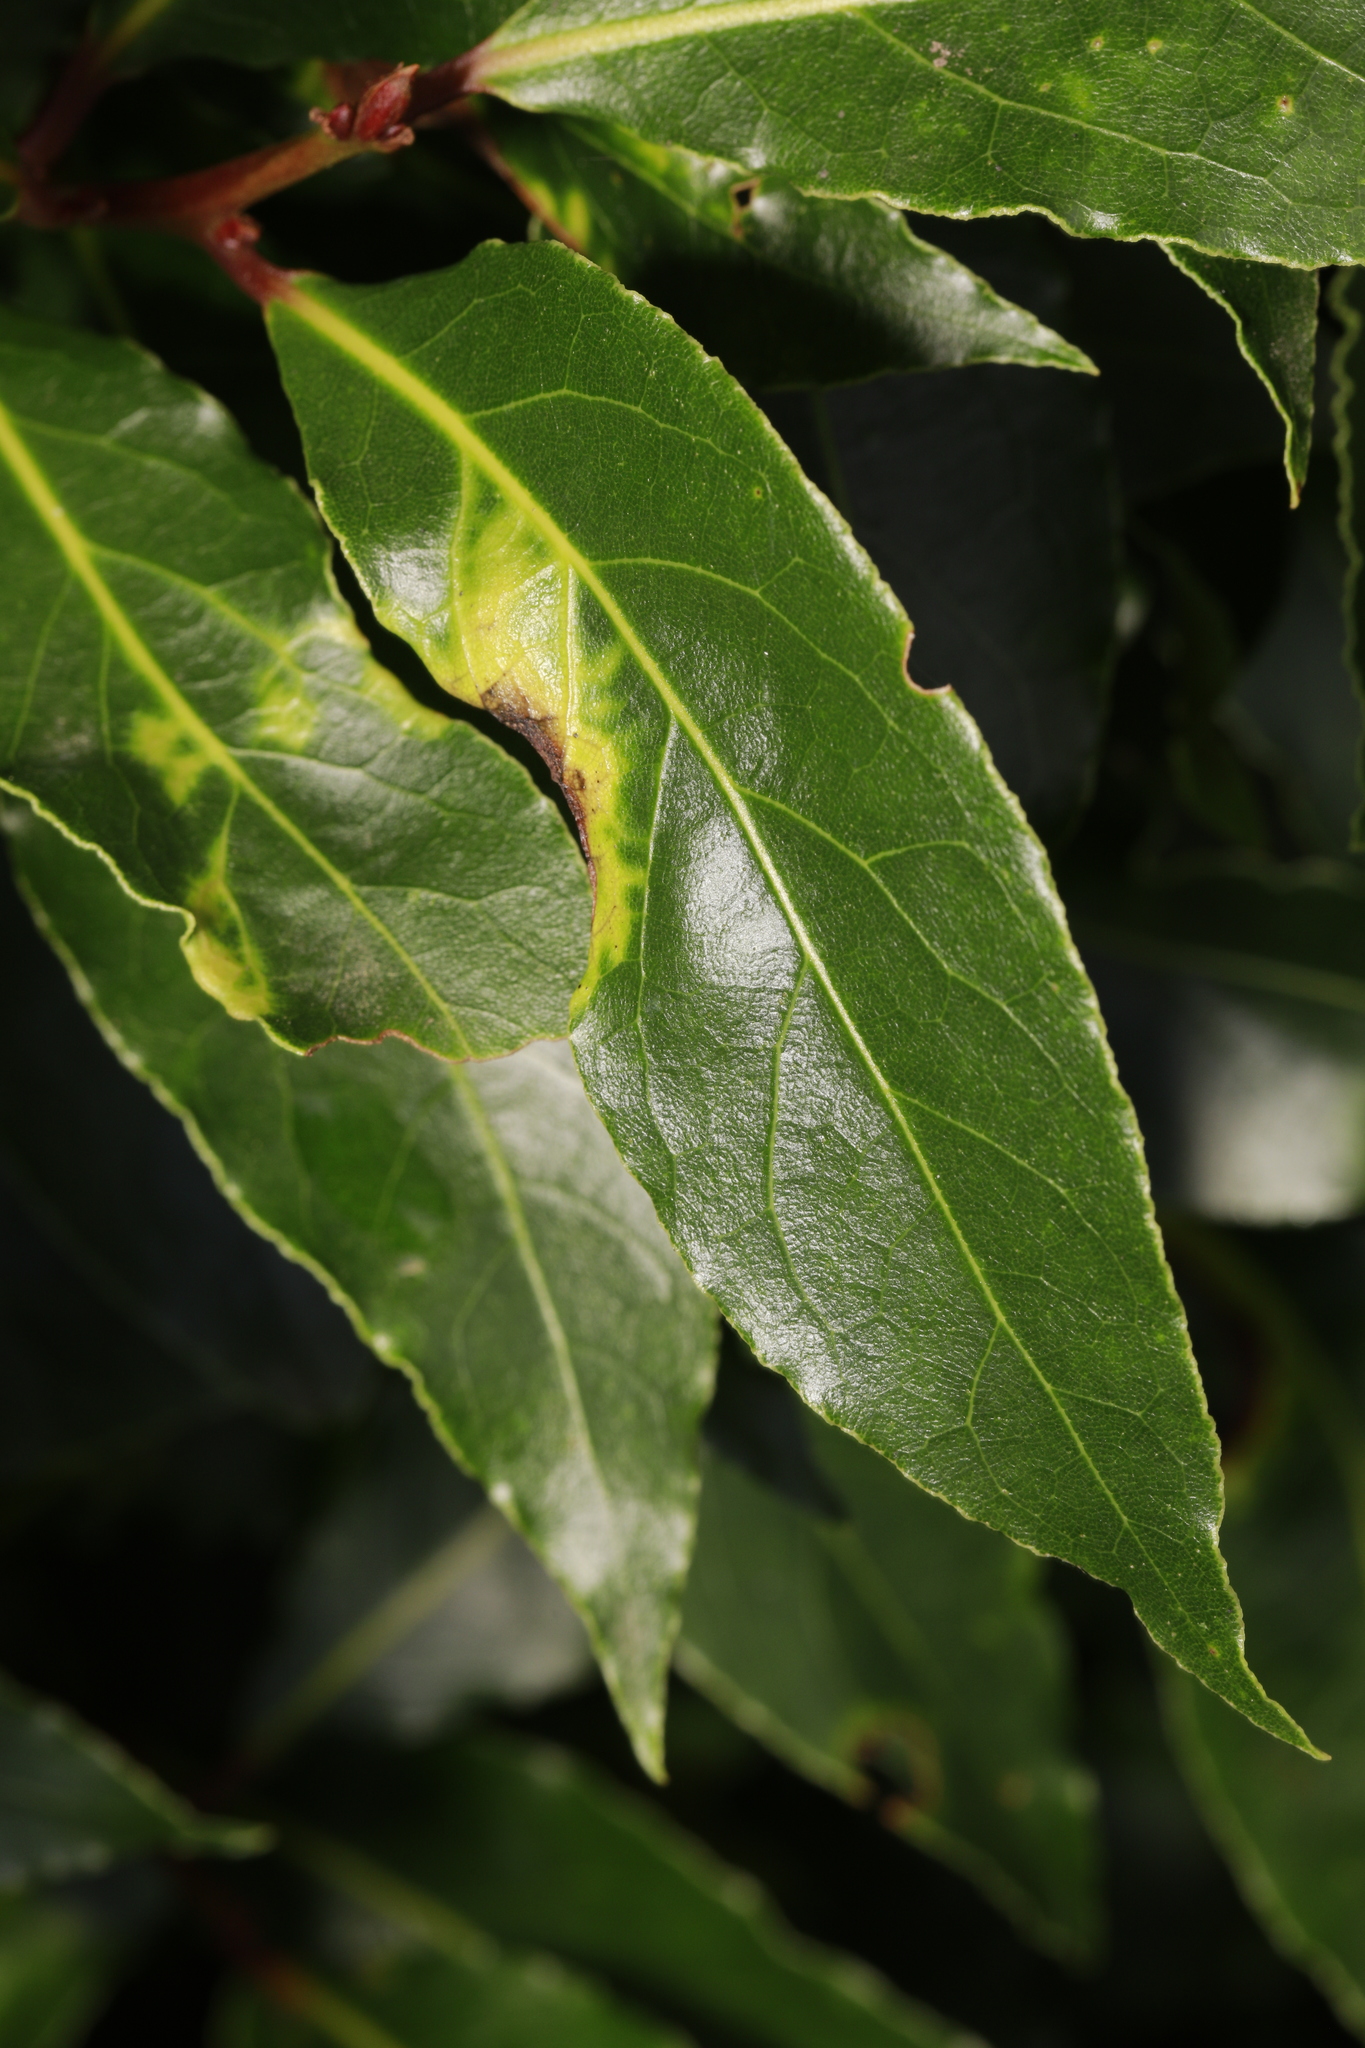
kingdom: Animalia
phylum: Arthropoda
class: Insecta
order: Hemiptera
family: Triozidae
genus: Lauritrioza
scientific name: Lauritrioza alacris
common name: Laurel psyllid
